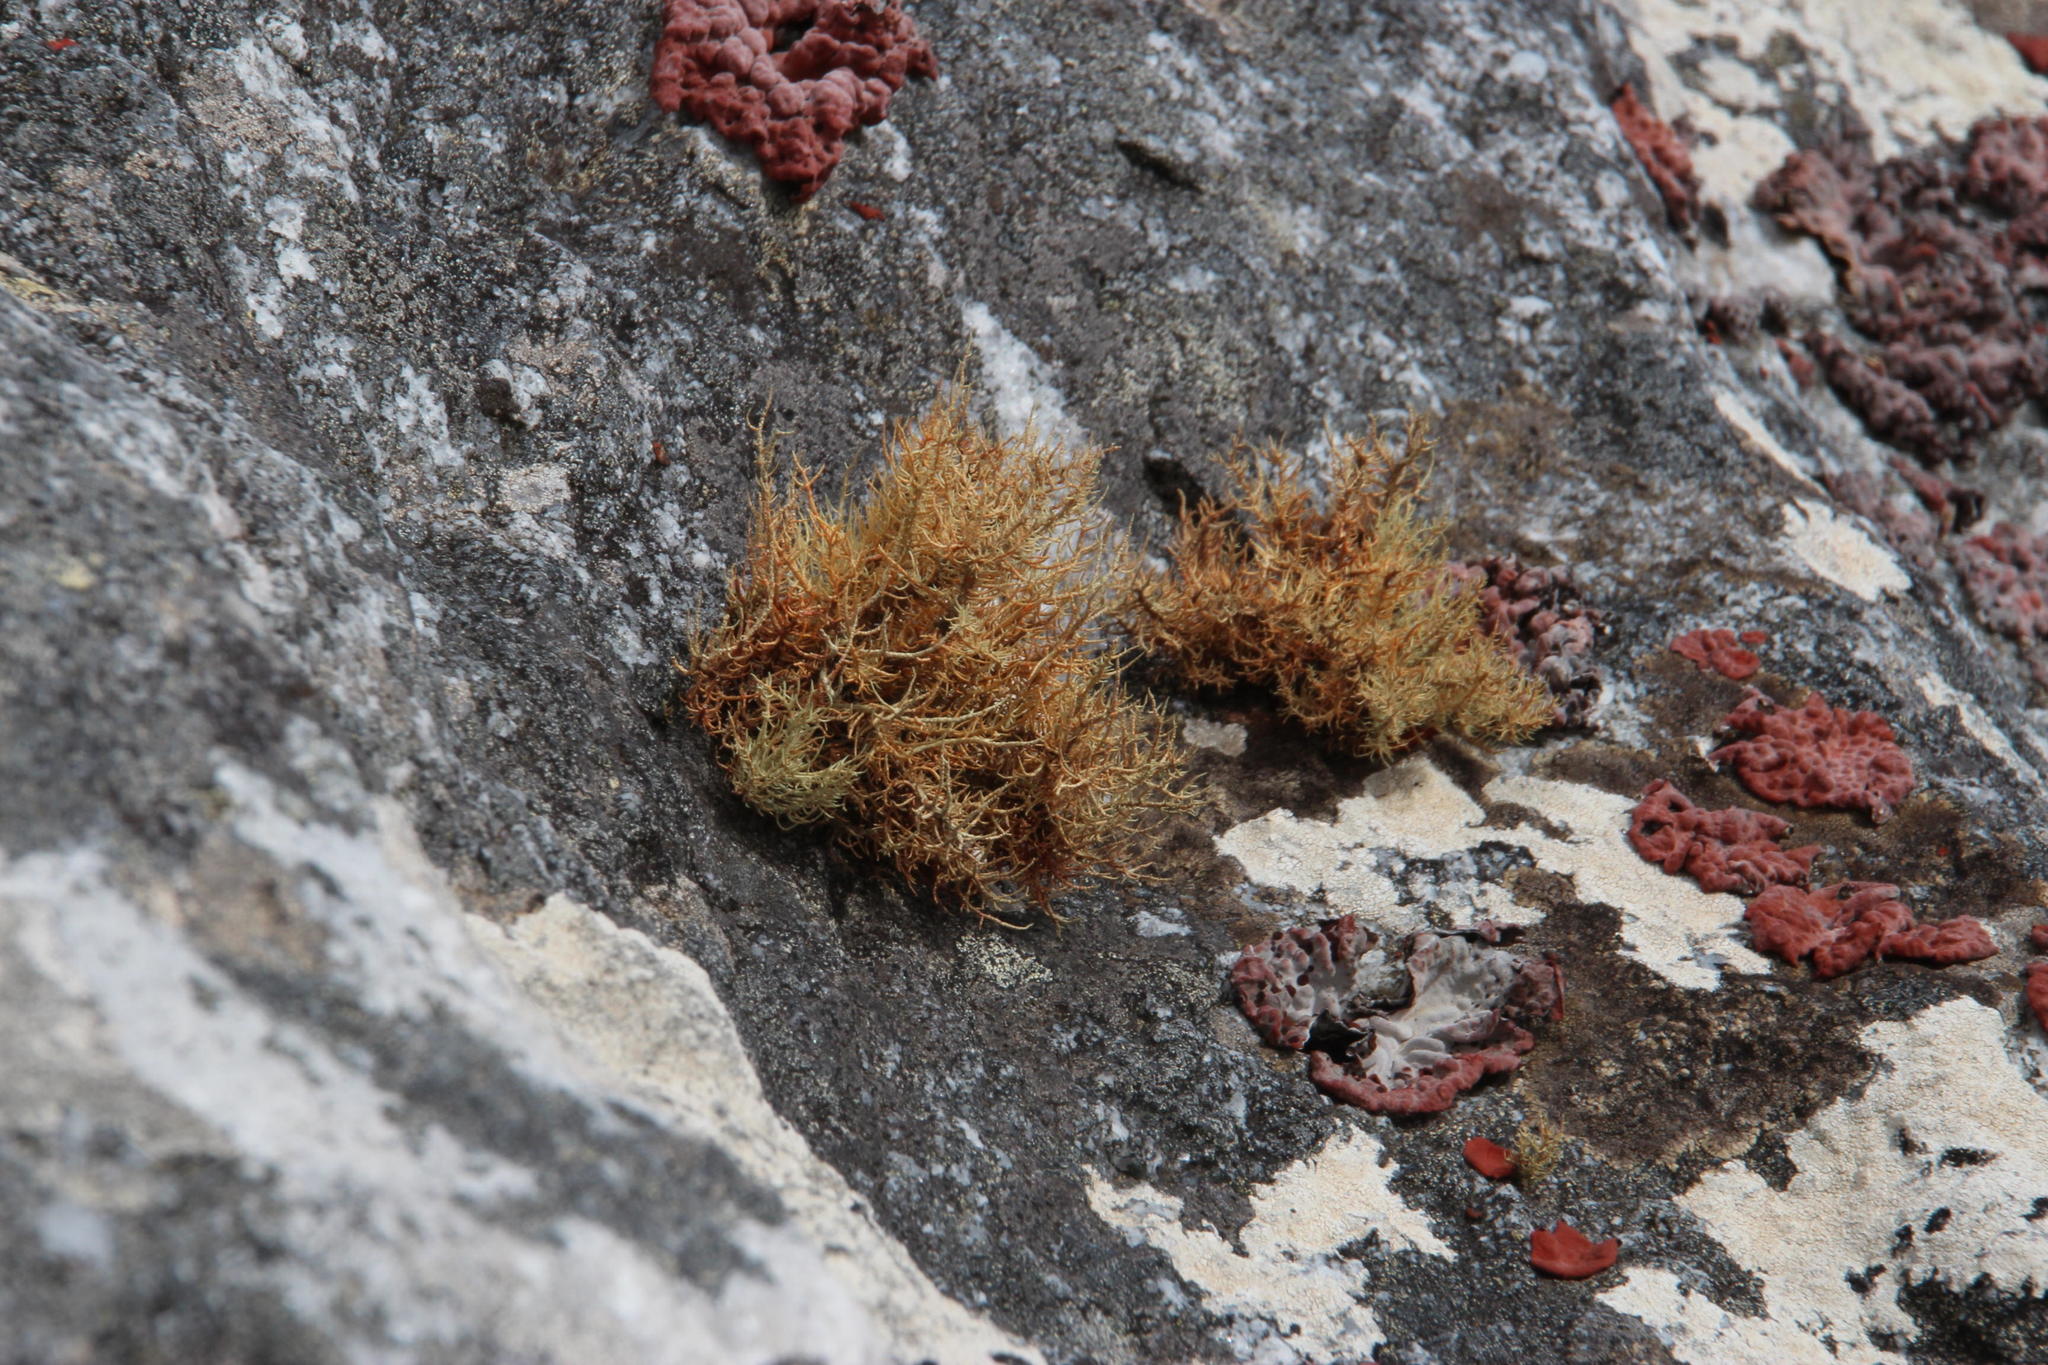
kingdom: Fungi
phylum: Ascomycota
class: Lecanoromycetes
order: Lecanorales
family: Parmeliaceae
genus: Usnea
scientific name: Usnea maculata
